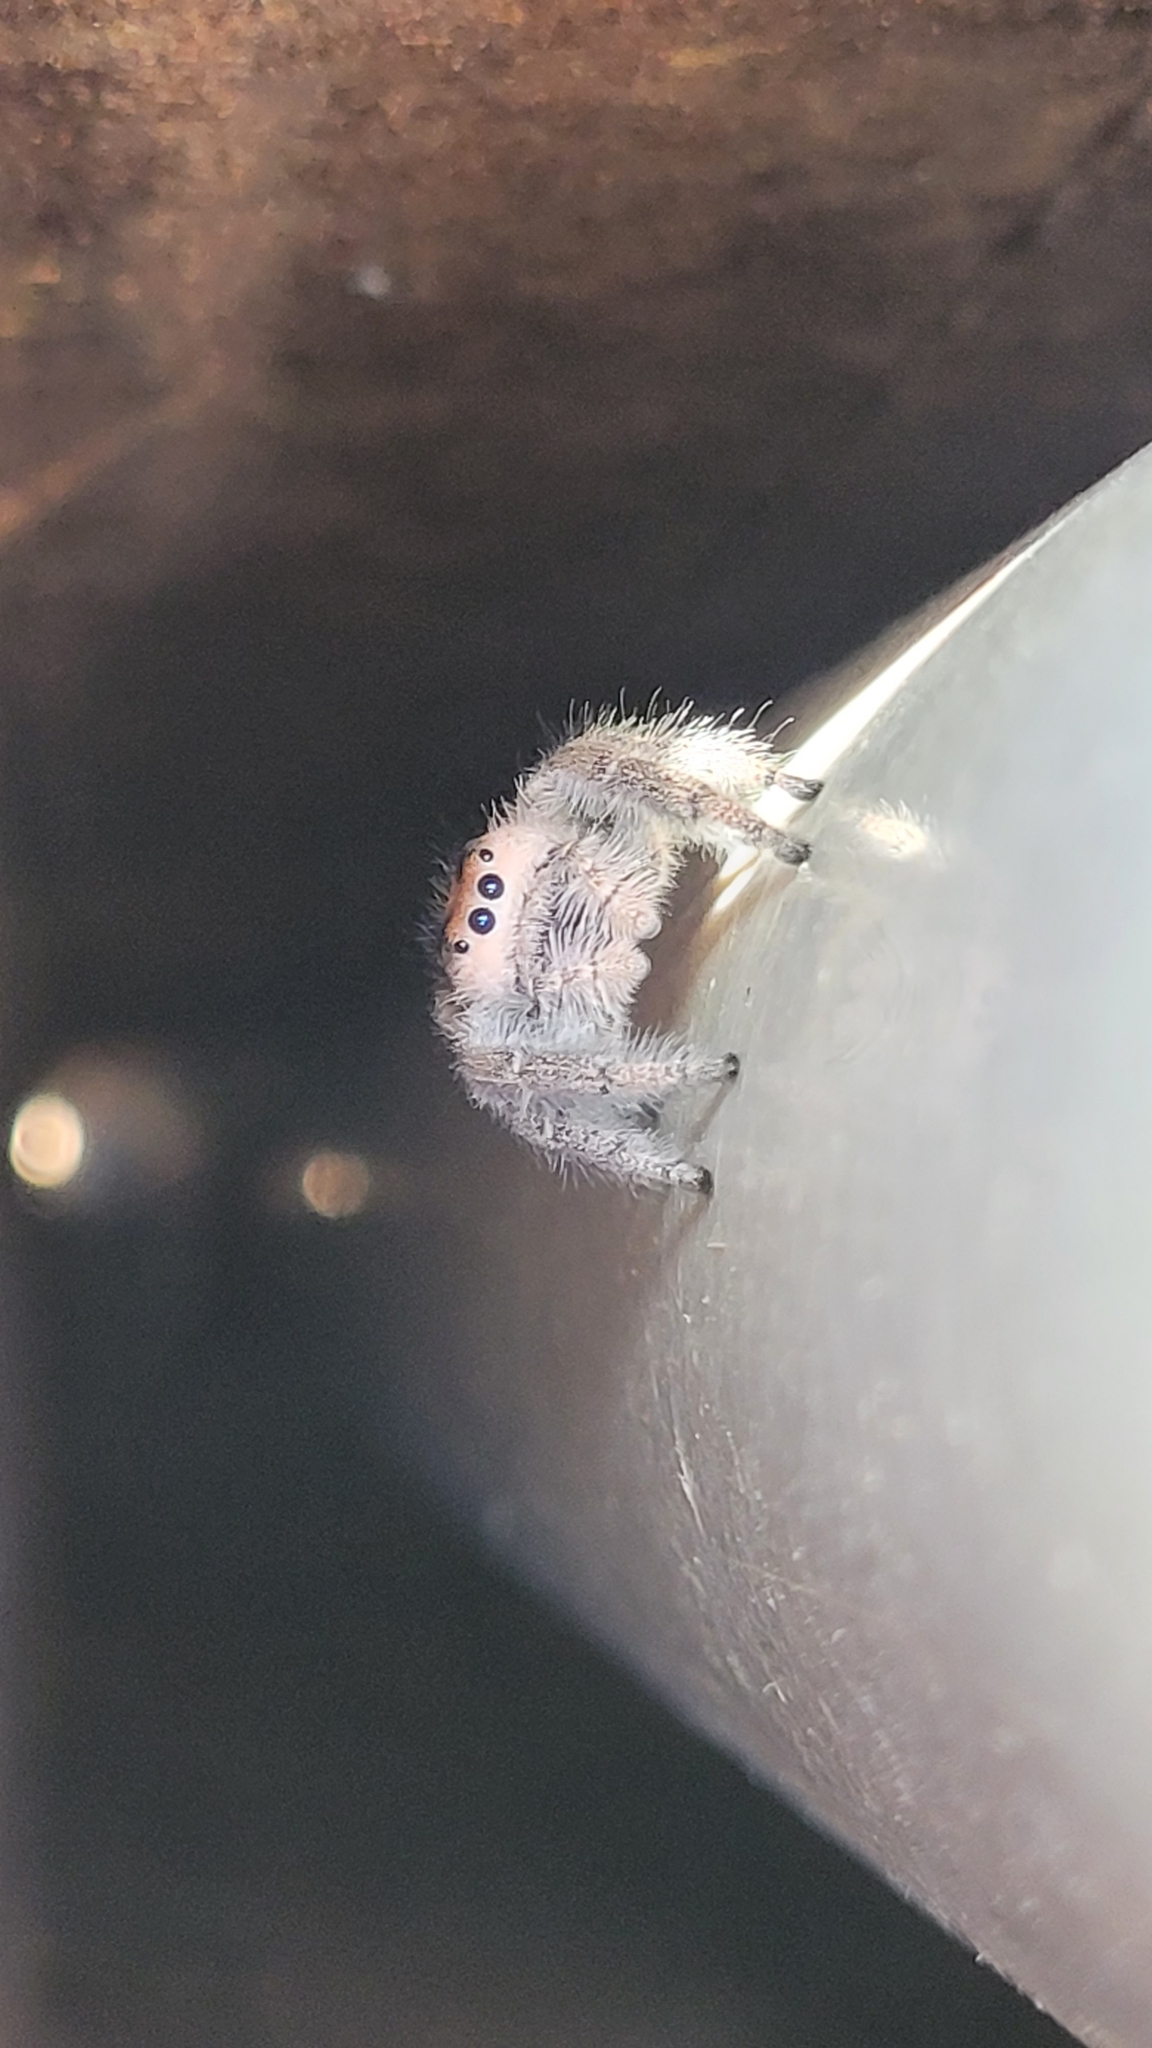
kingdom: Animalia
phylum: Arthropoda
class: Arachnida
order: Araneae
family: Salticidae
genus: Phidippus
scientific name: Phidippus regius
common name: Regal jumper
